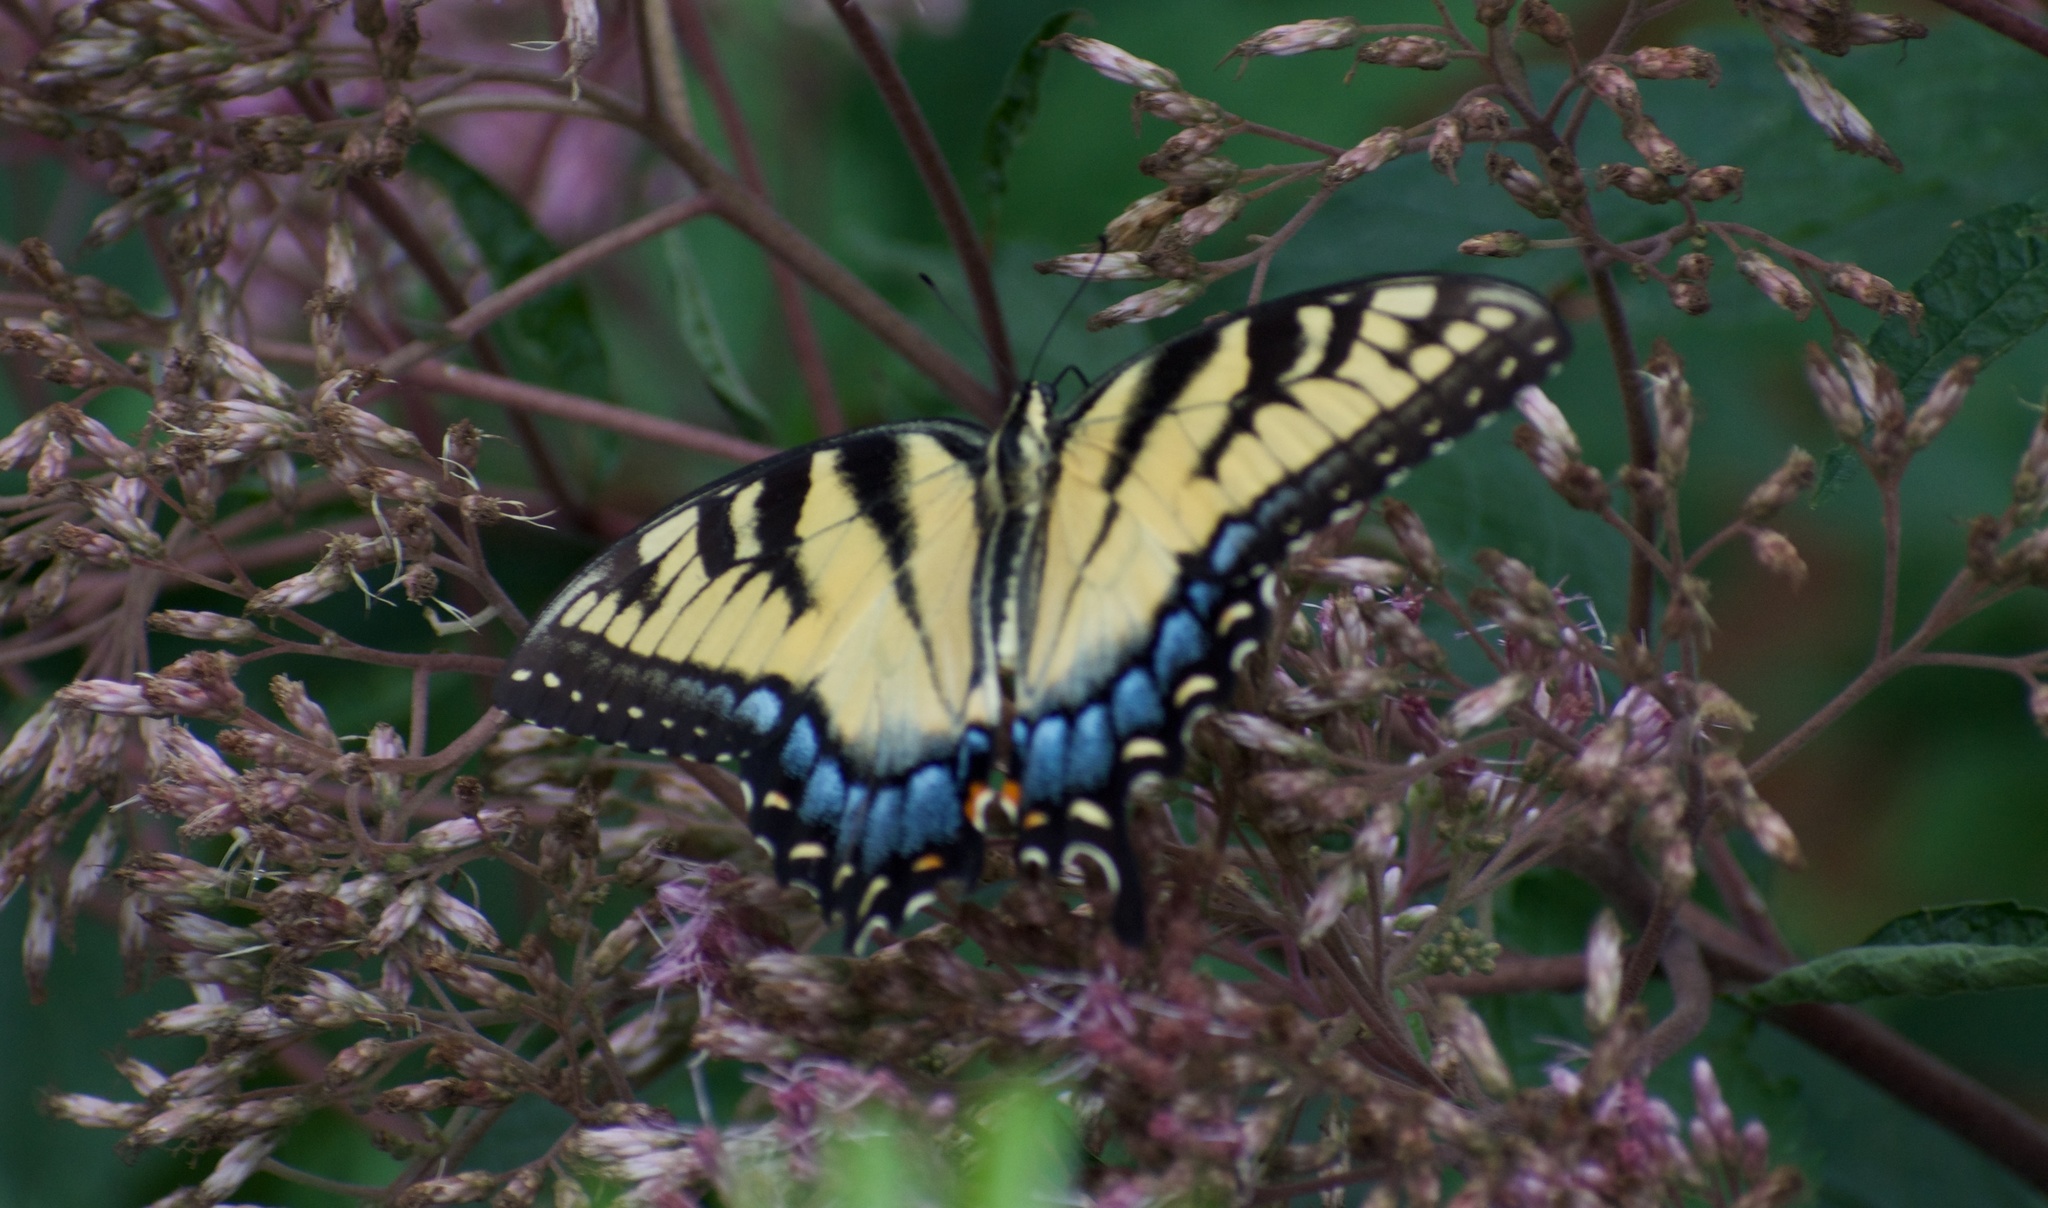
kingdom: Animalia
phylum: Arthropoda
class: Insecta
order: Lepidoptera
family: Papilionidae
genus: Papilio
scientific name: Papilio glaucus
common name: Tiger swallowtail
